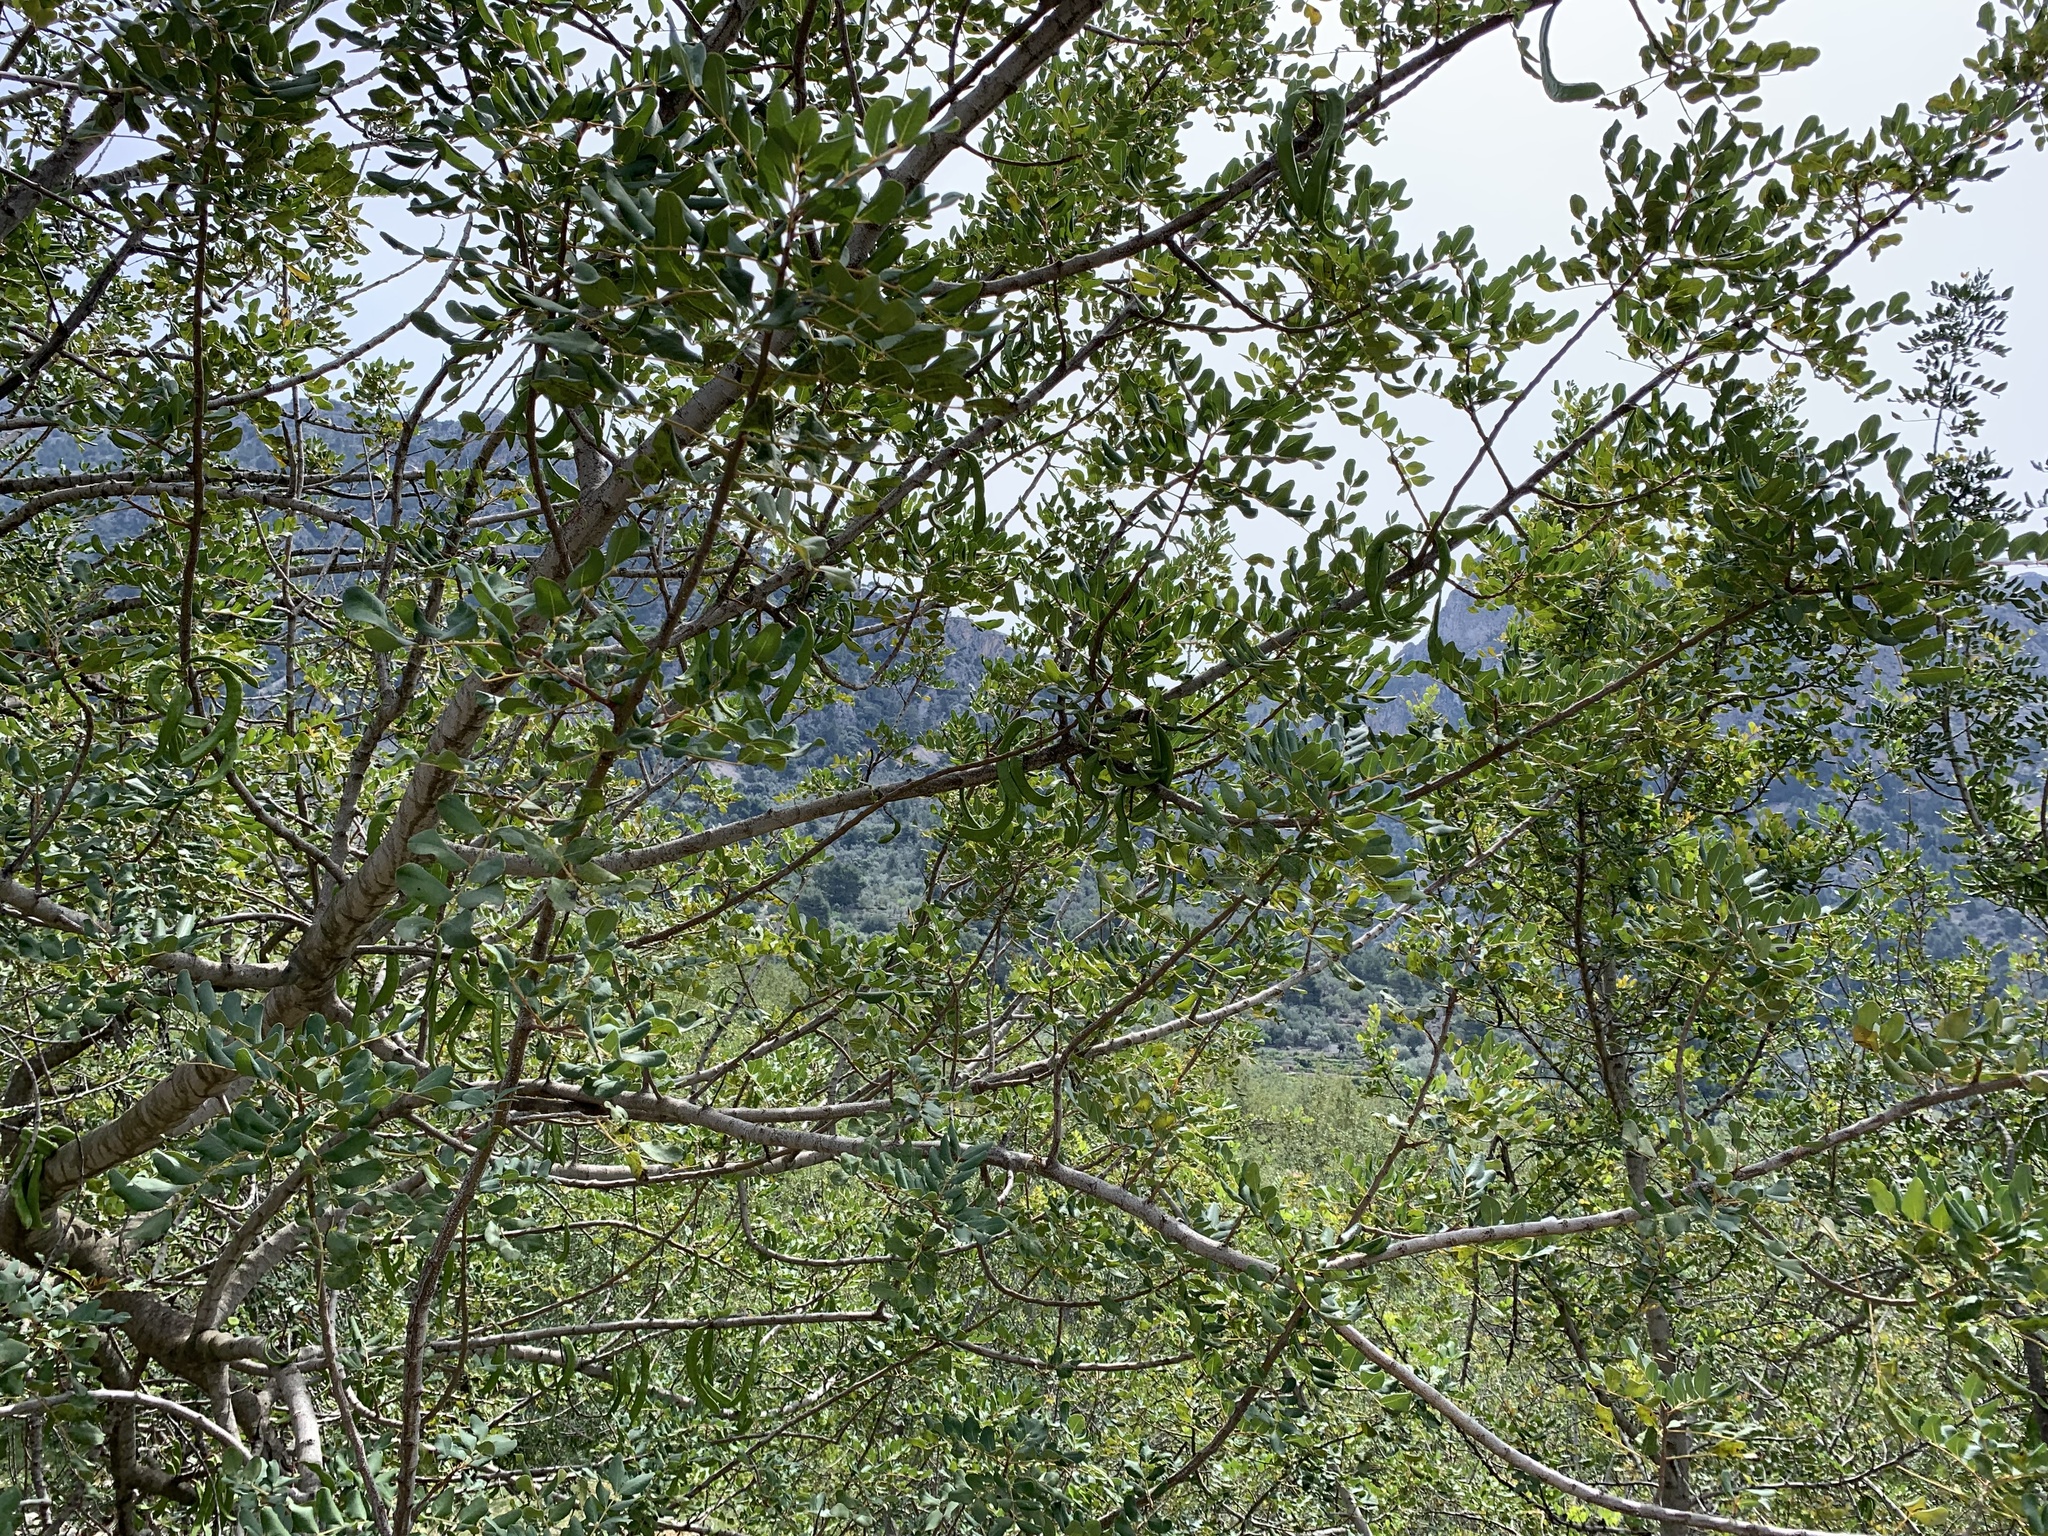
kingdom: Plantae
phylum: Tracheophyta
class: Magnoliopsida
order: Fabales
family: Fabaceae
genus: Ceratonia
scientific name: Ceratonia siliqua
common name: Carob
